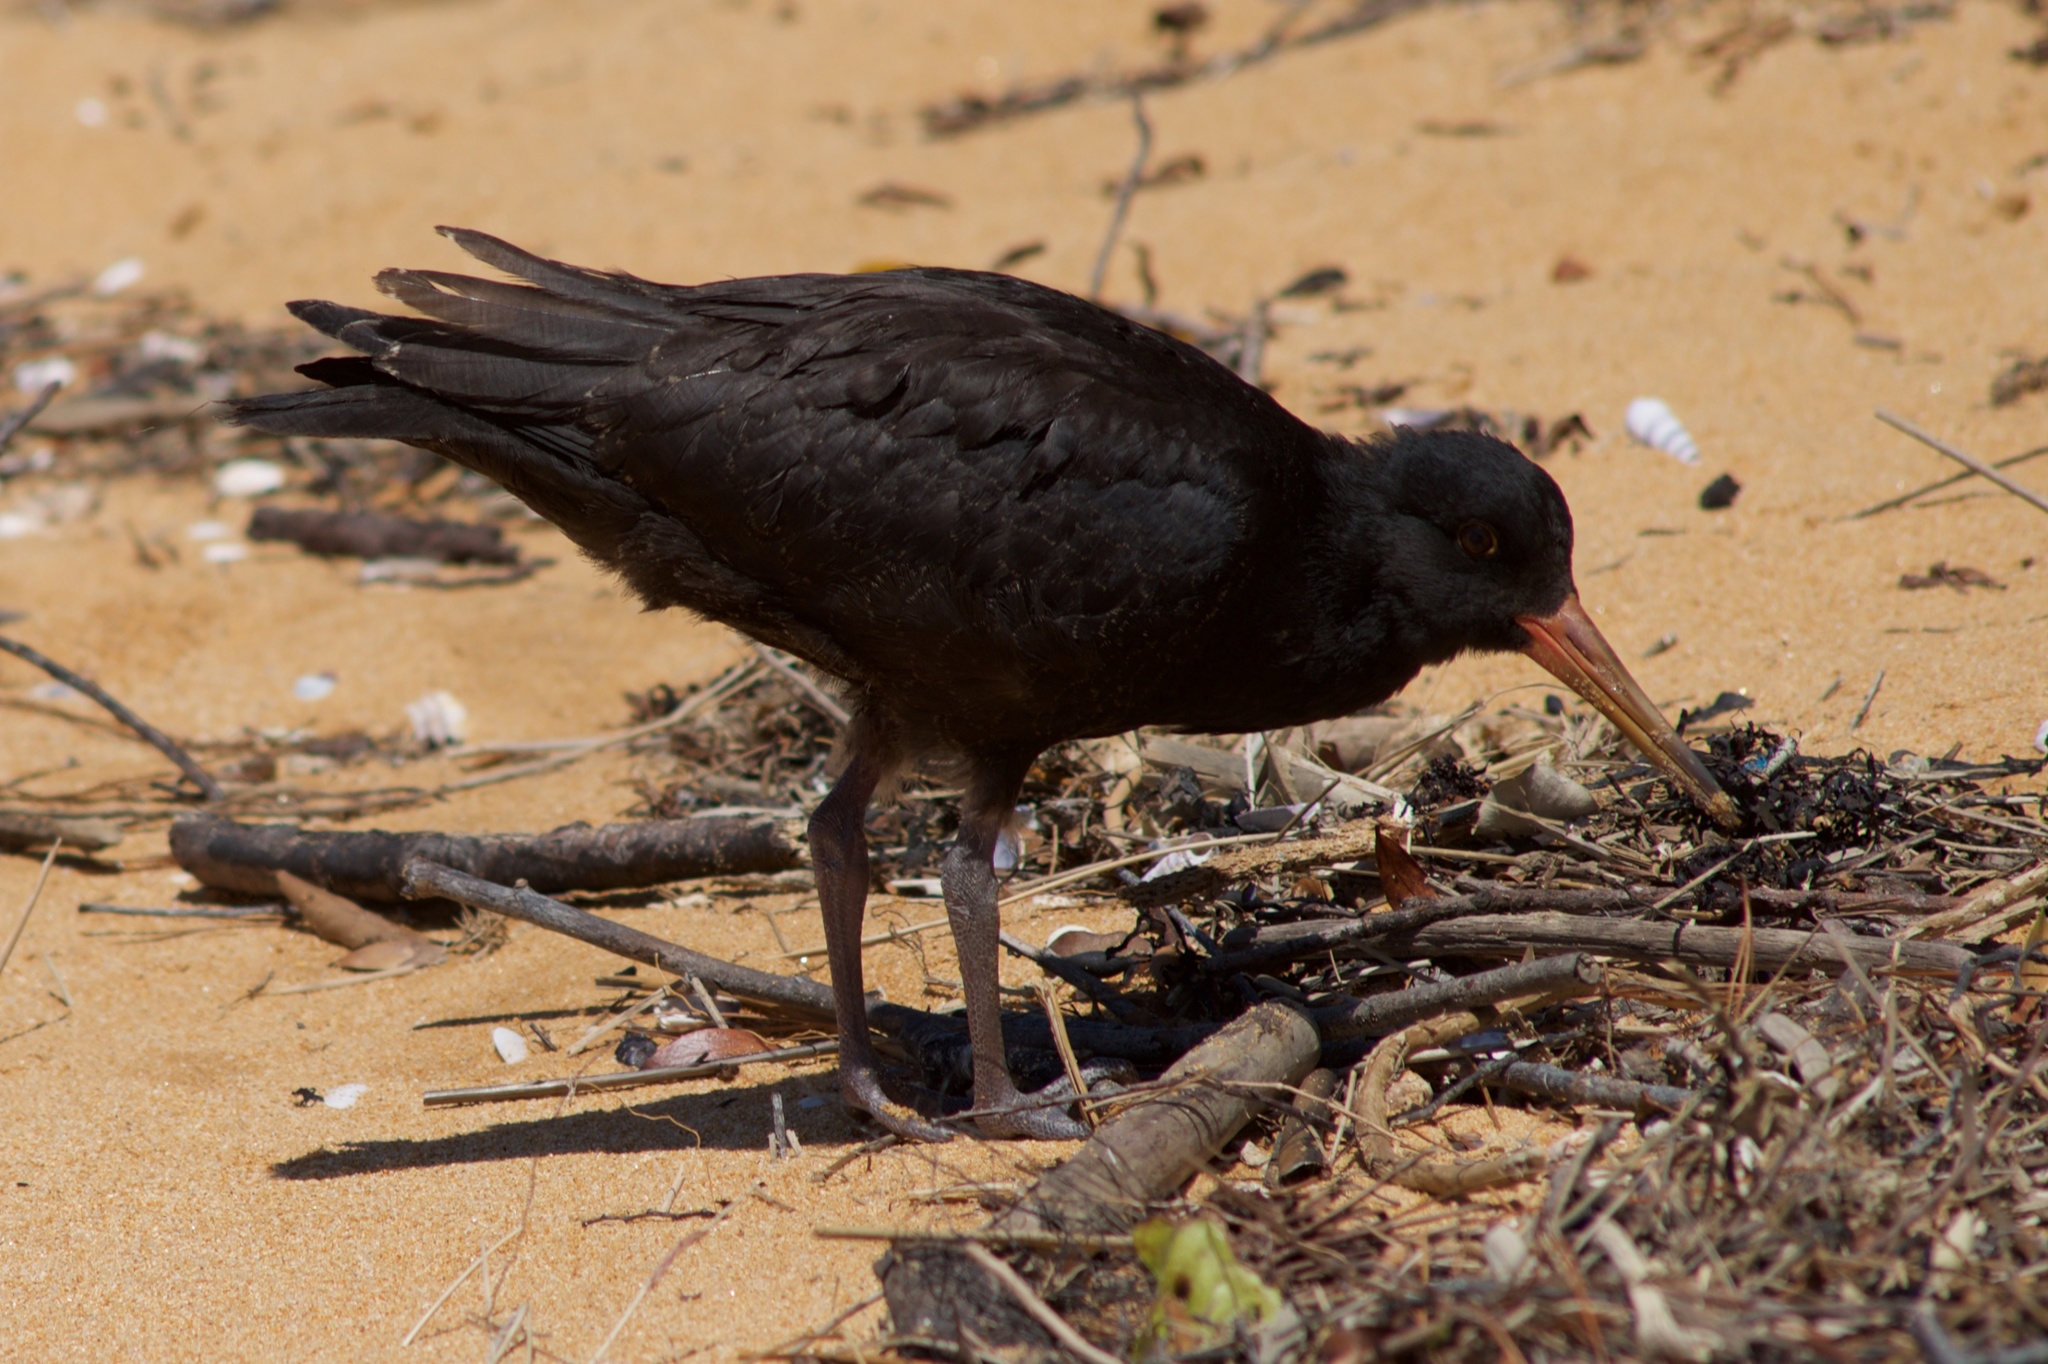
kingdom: Animalia
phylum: Chordata
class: Aves
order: Charadriiformes
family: Haematopodidae
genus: Haematopus
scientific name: Haematopus unicolor
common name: Variable oystercatcher
